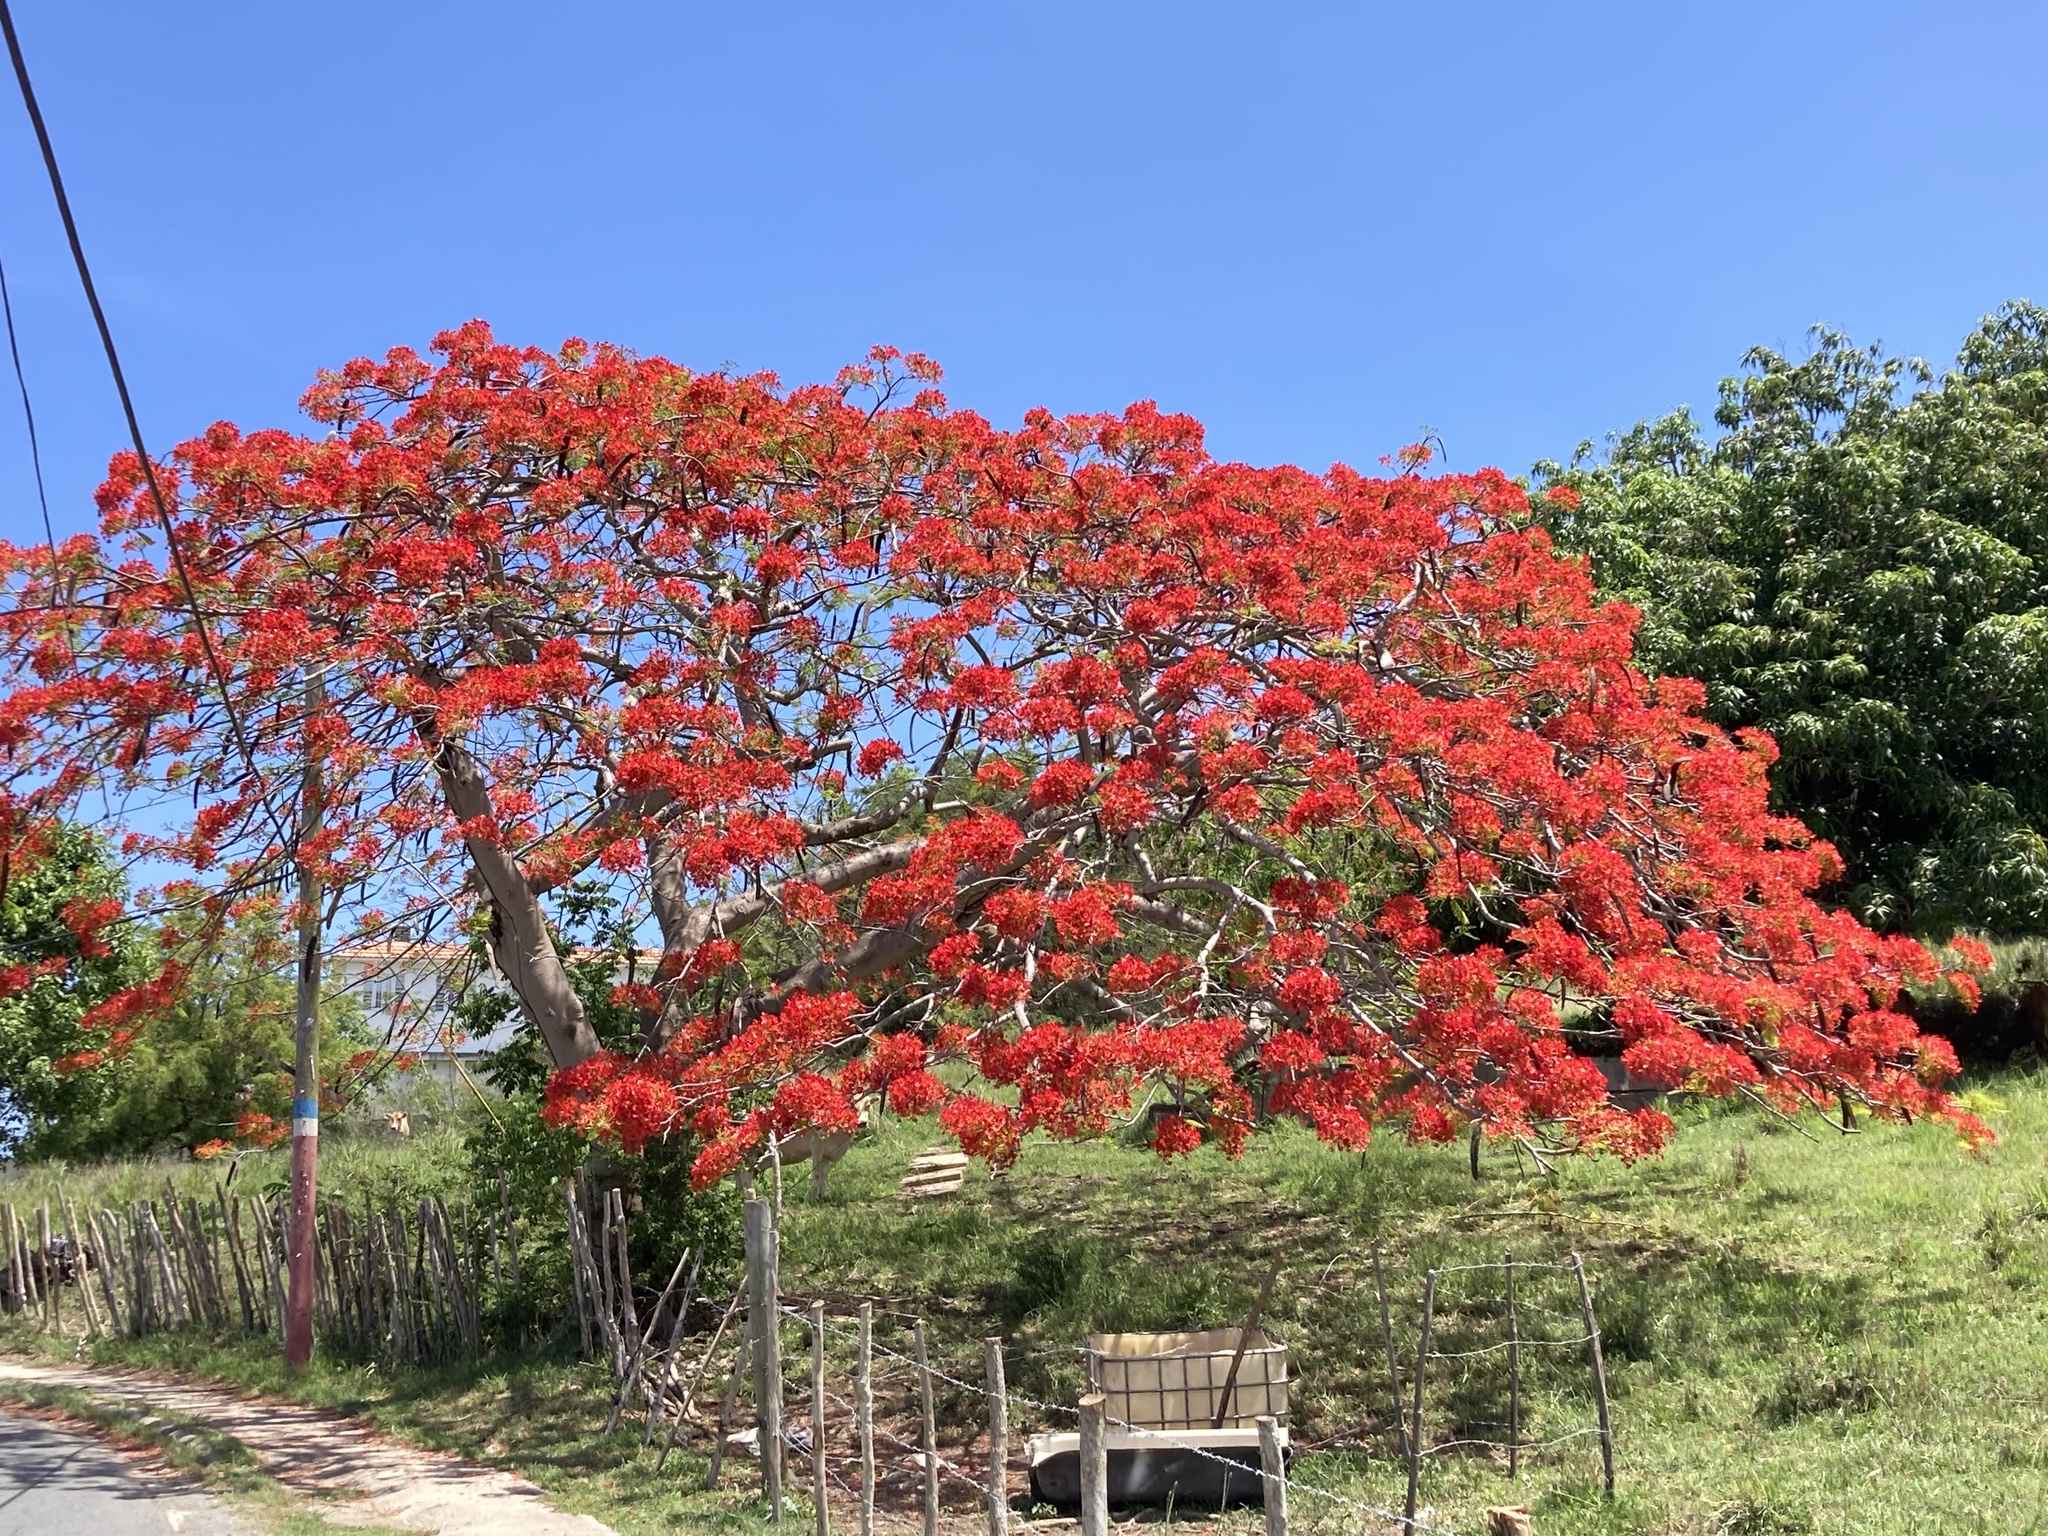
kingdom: Plantae
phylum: Tracheophyta
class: Magnoliopsida
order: Fabales
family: Fabaceae
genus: Delonix
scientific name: Delonix regia
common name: Royal poinciana
